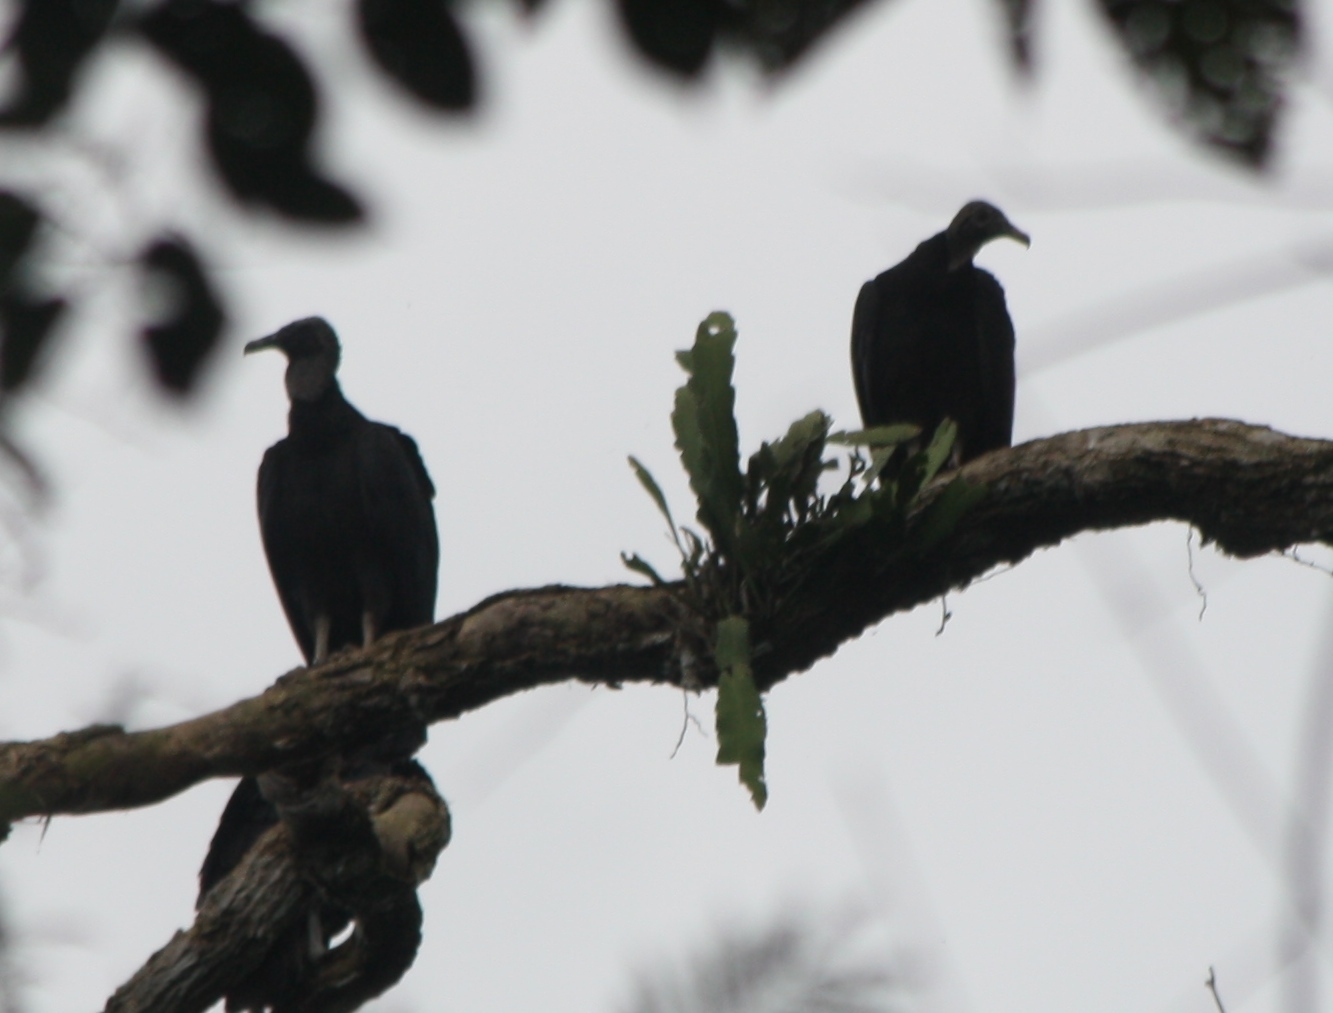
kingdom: Animalia
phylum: Chordata
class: Aves
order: Accipitriformes
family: Cathartidae
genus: Coragyps
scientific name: Coragyps atratus
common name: Black vulture
